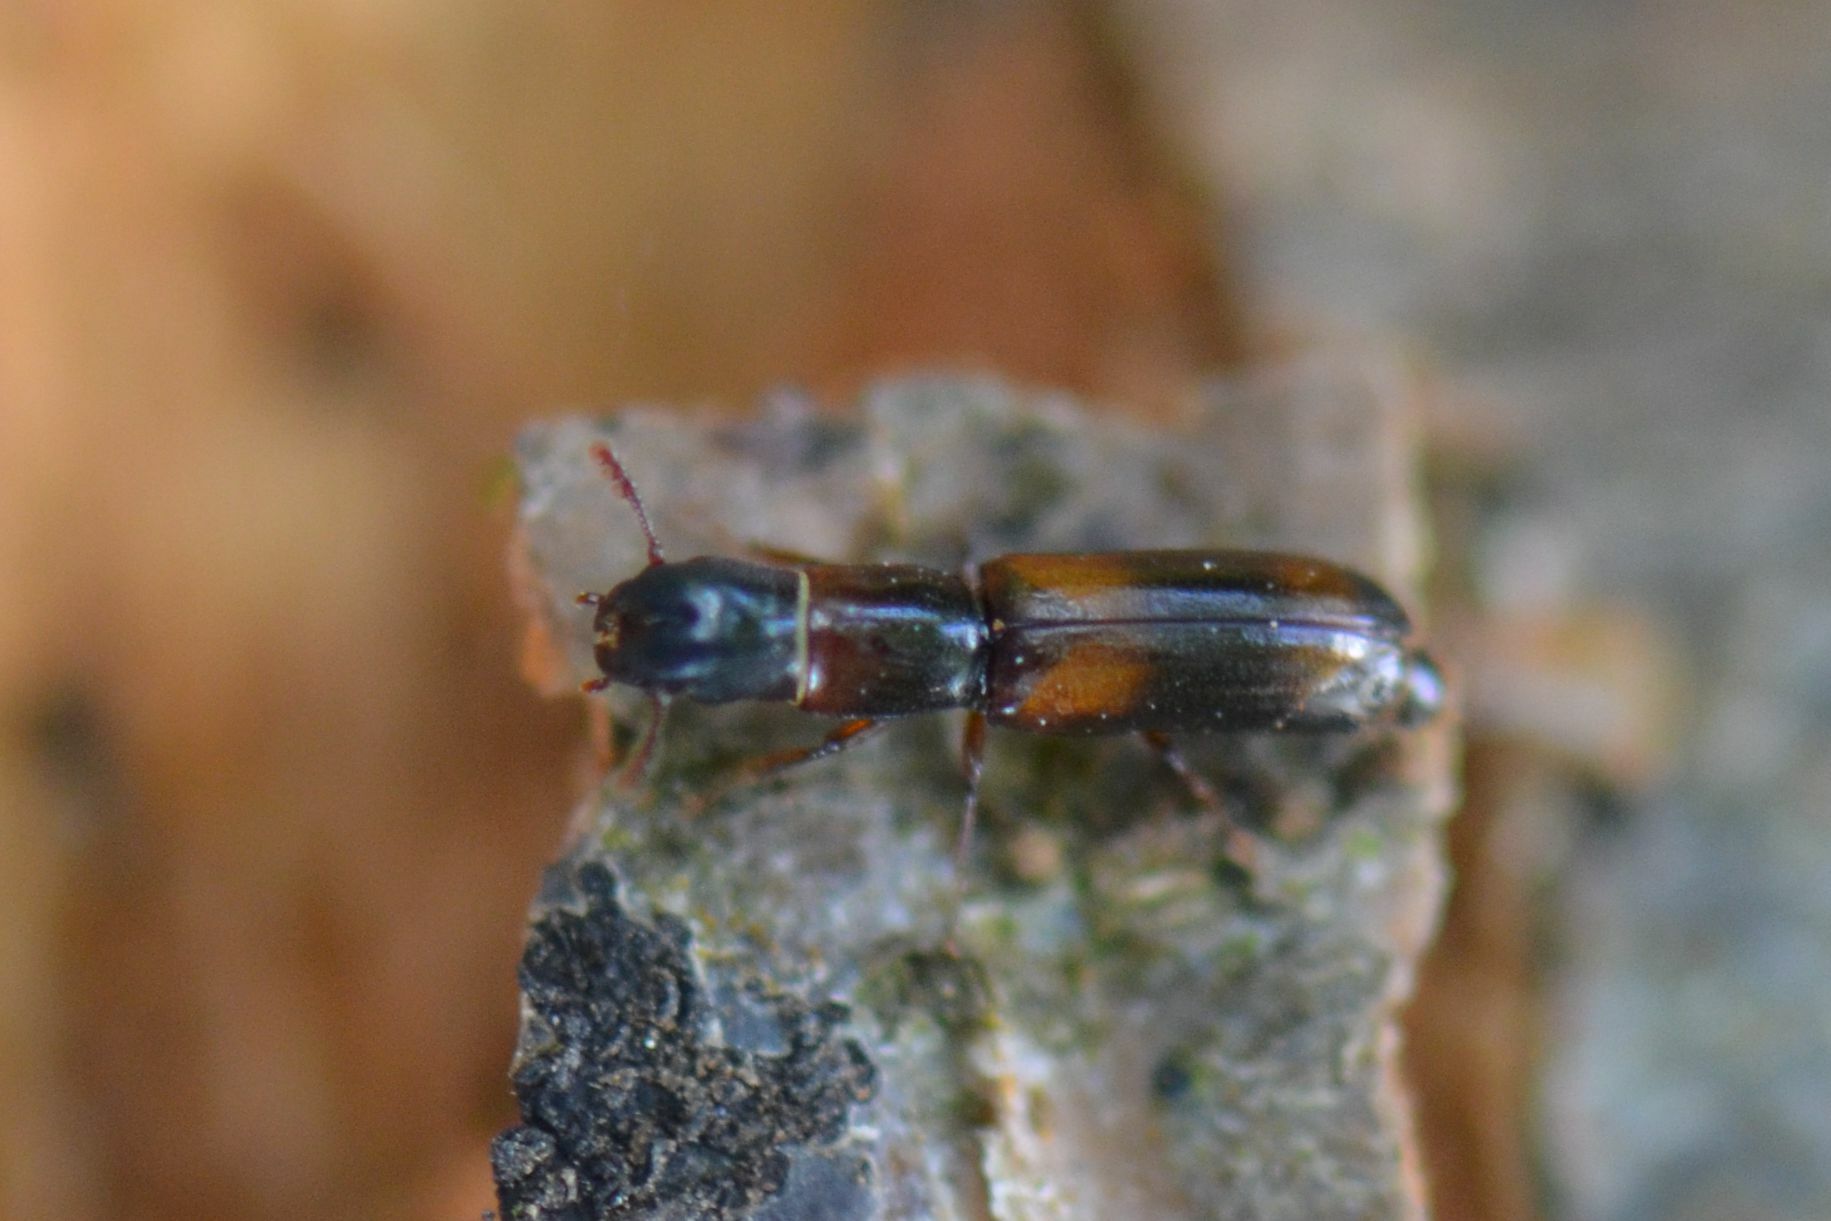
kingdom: Animalia
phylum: Arthropoda
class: Insecta
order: Coleoptera
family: Trogossitidae
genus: Nemozoma
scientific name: Nemozoma caucasicum
